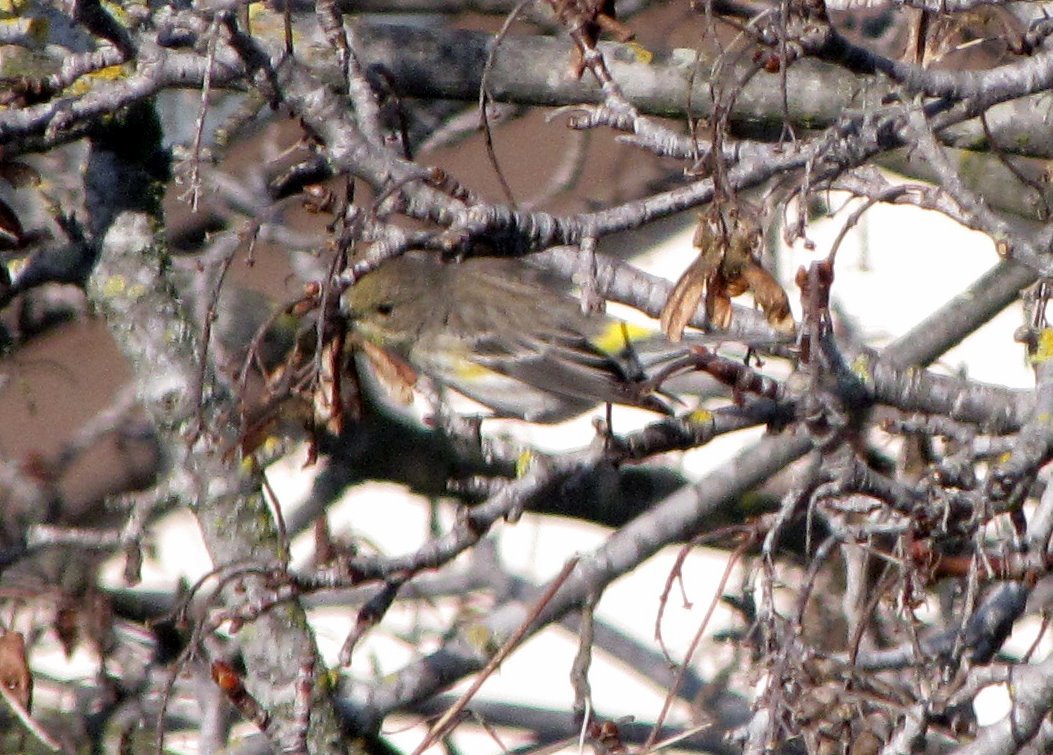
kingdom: Animalia
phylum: Chordata
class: Aves
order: Passeriformes
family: Parulidae
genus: Setophaga
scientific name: Setophaga coronata
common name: Myrtle warbler
